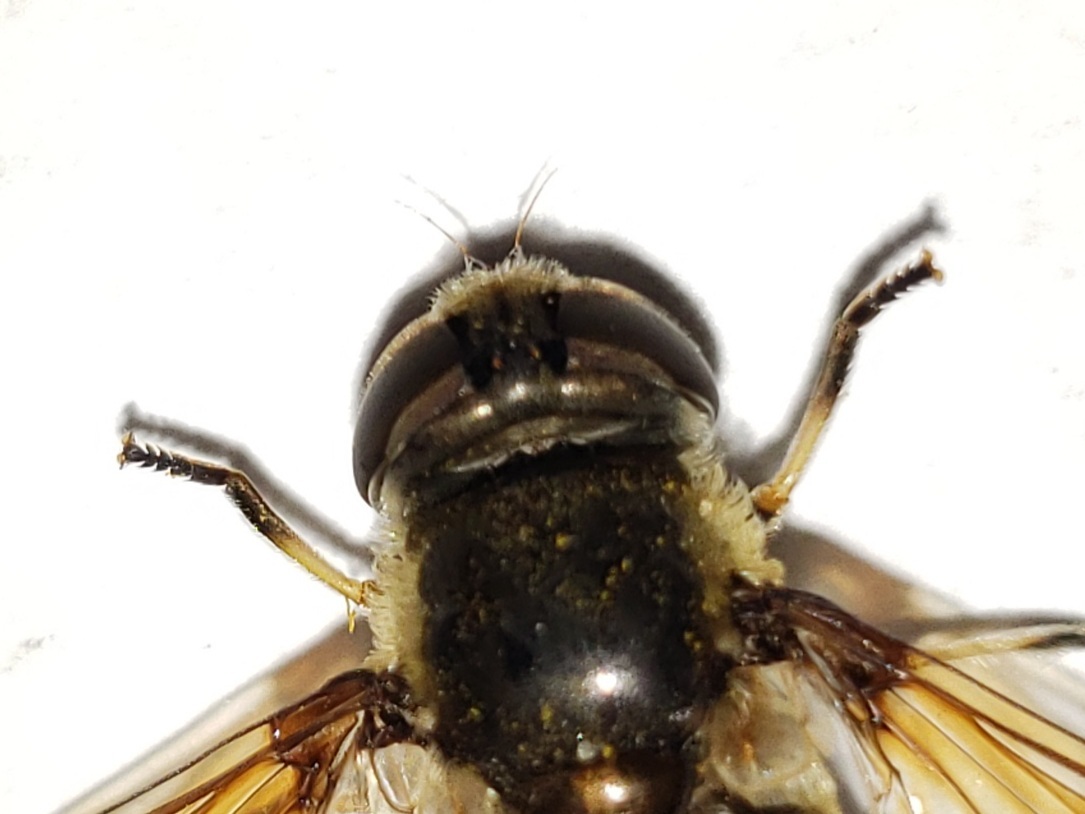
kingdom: Animalia
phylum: Arthropoda
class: Insecta
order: Diptera
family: Syrphidae
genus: Eristalis
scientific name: Eristalis dimidiata
